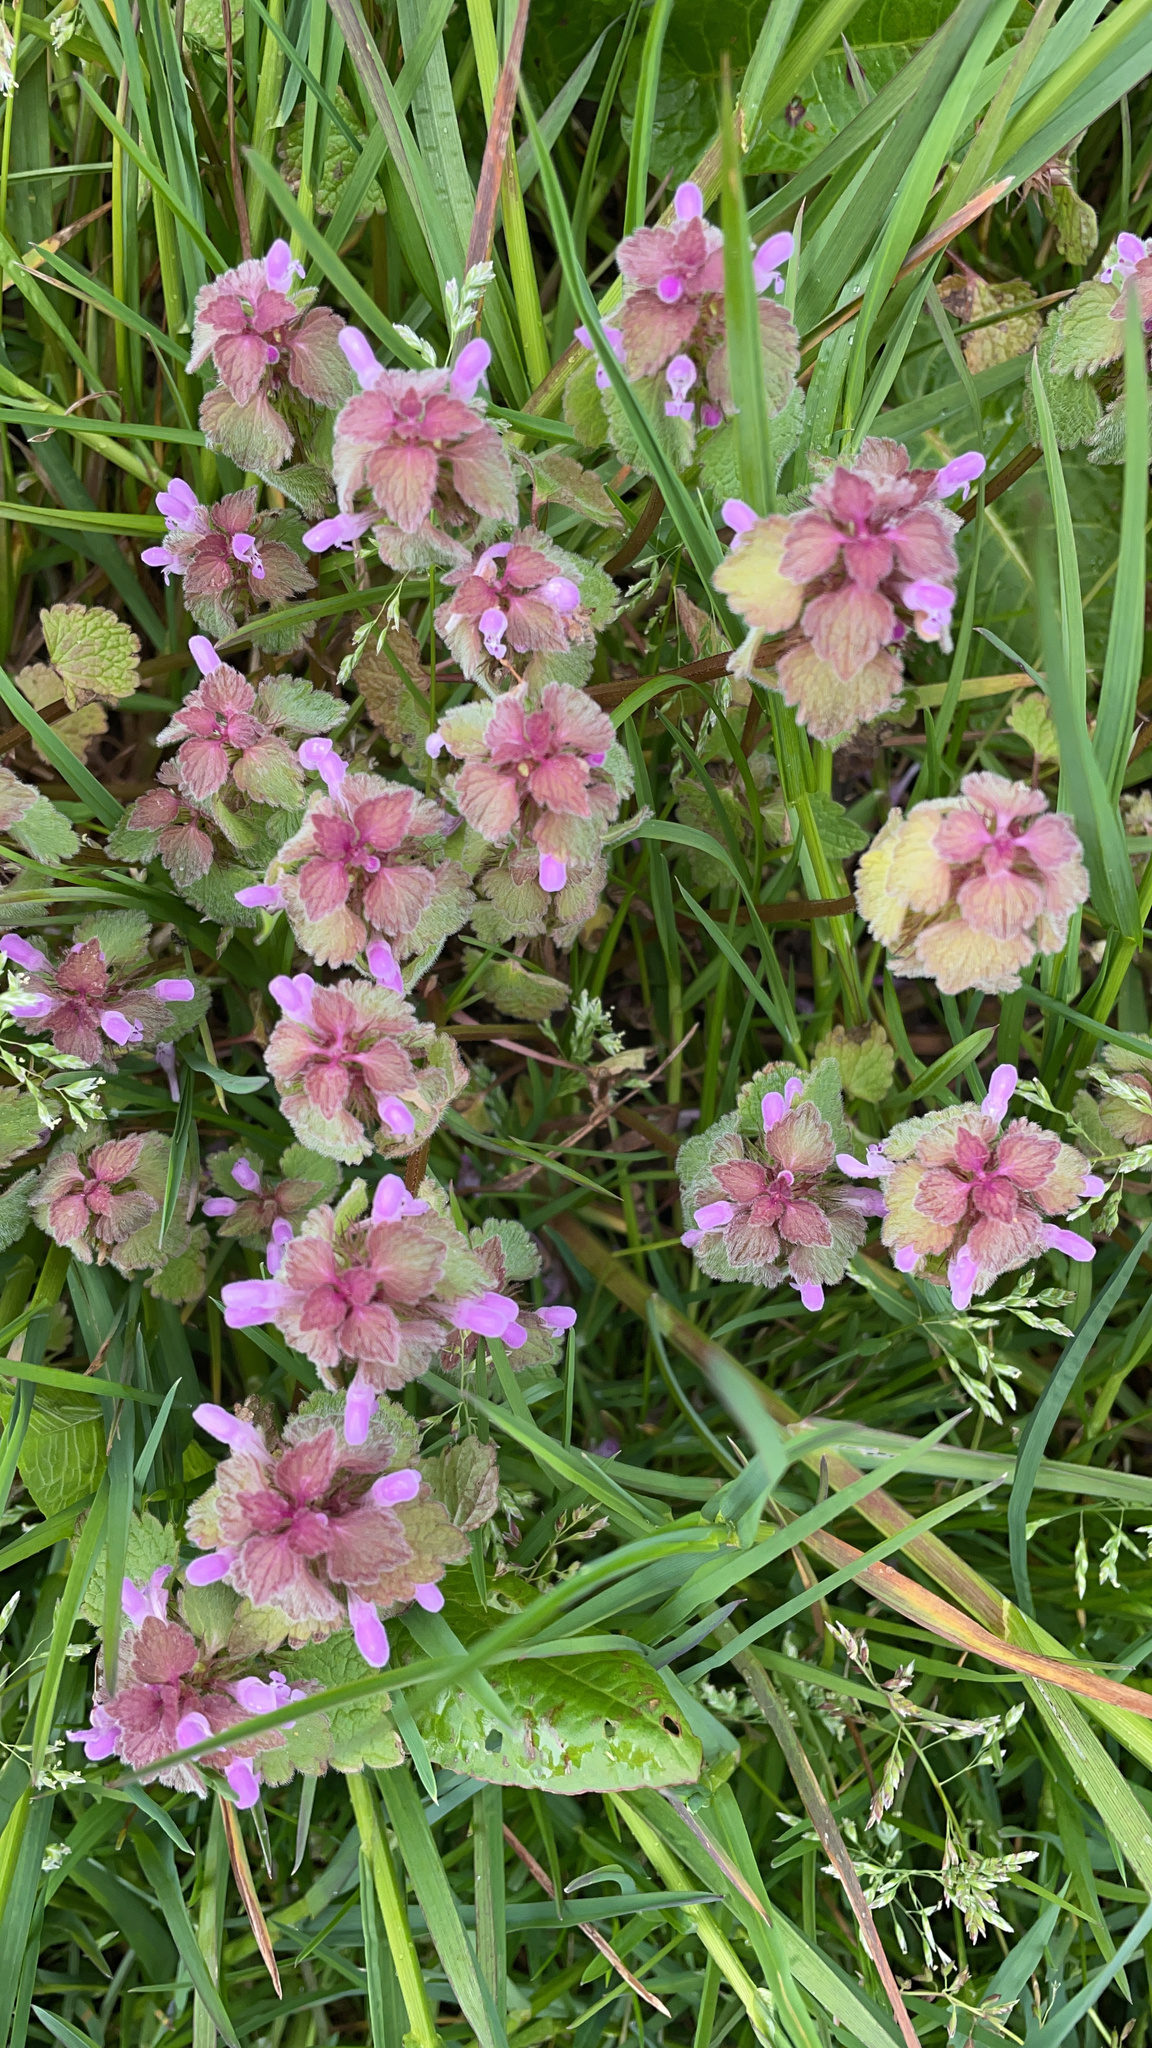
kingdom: Plantae
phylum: Tracheophyta
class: Magnoliopsida
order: Lamiales
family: Lamiaceae
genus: Lamium
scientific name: Lamium purpureum
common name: Red dead-nettle
